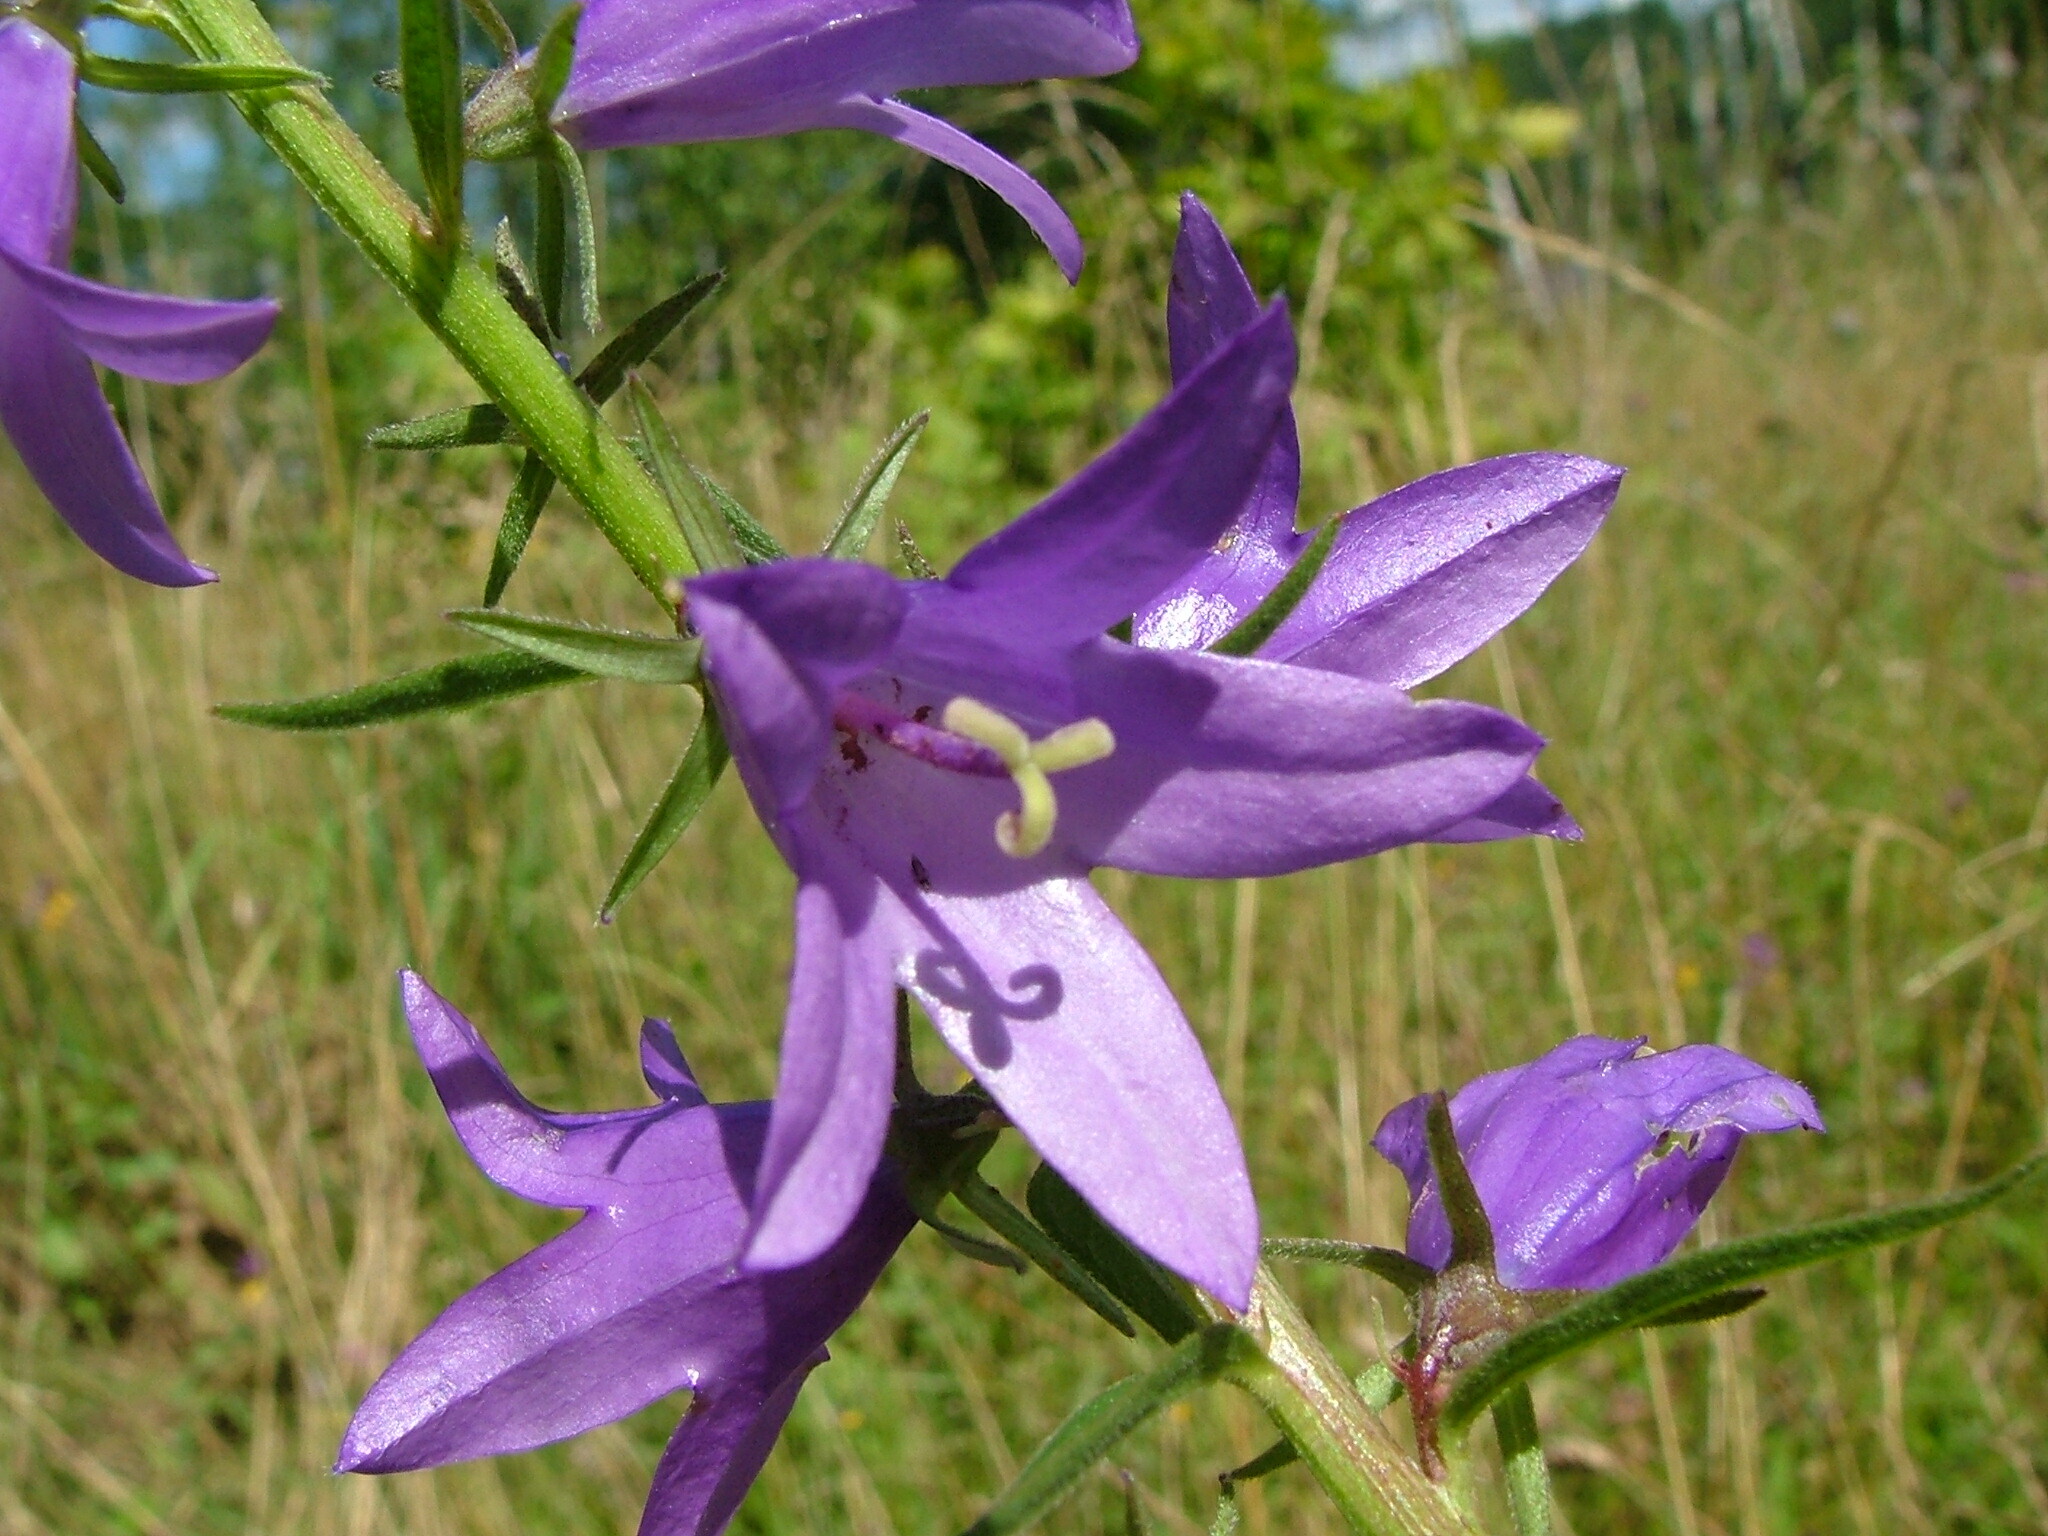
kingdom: Plantae
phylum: Tracheophyta
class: Magnoliopsida
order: Asterales
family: Campanulaceae
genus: Campanula
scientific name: Campanula rapunculoides
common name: Creeping bellflower
